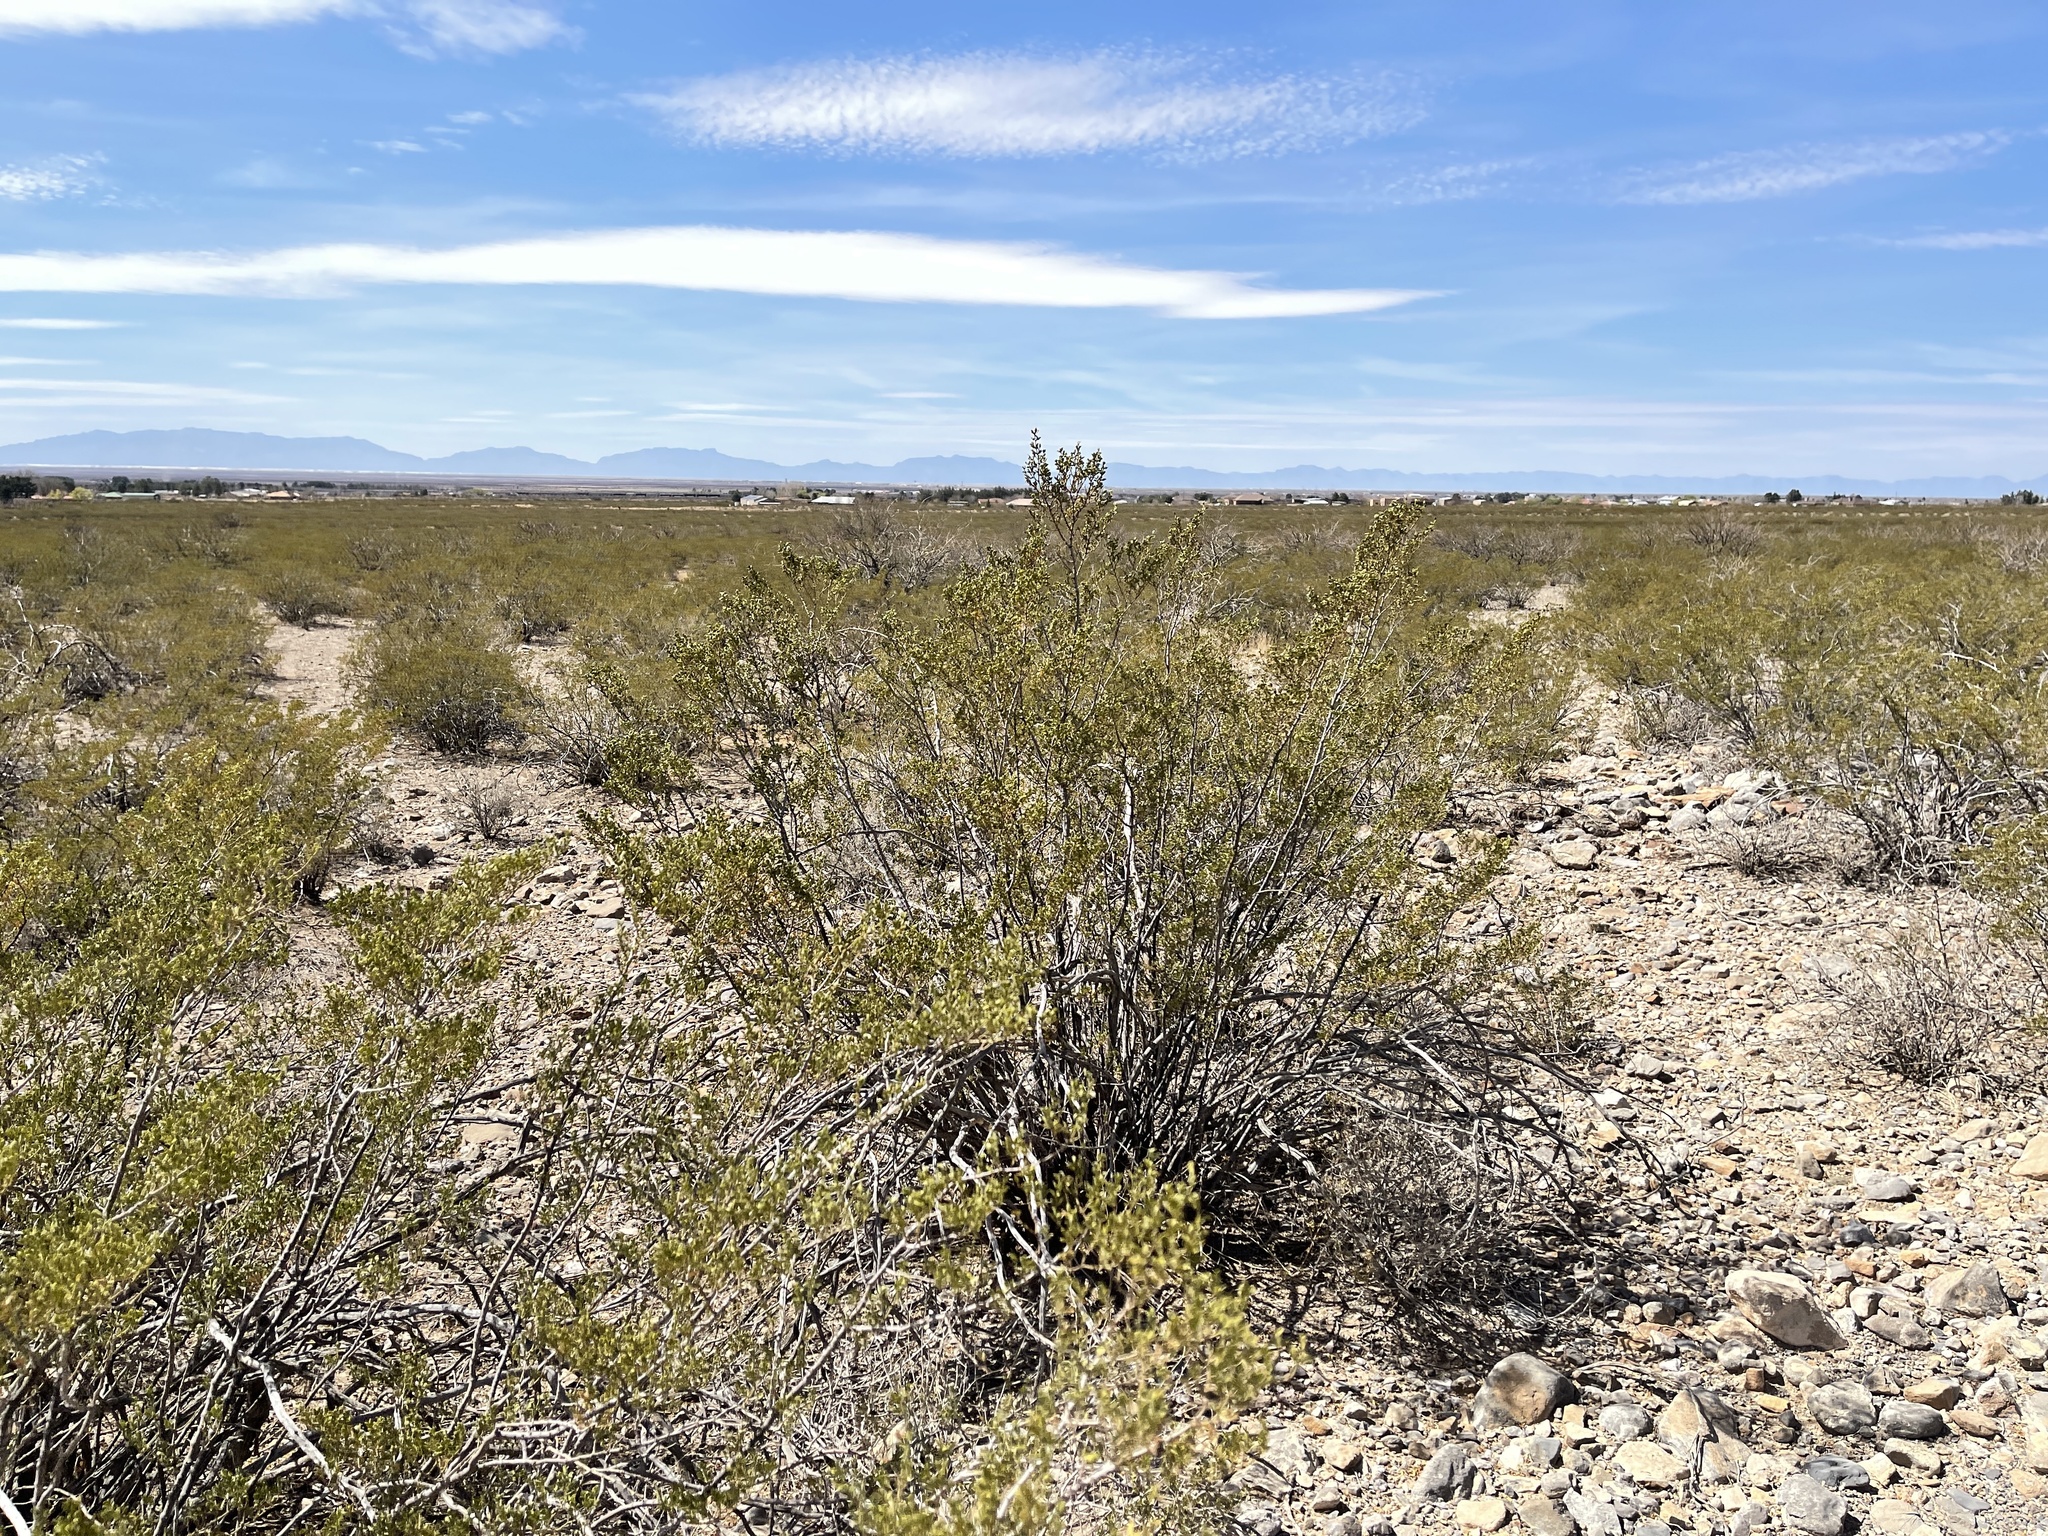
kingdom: Plantae
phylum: Tracheophyta
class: Magnoliopsida
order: Zygophyllales
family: Zygophyllaceae
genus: Larrea
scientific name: Larrea tridentata
